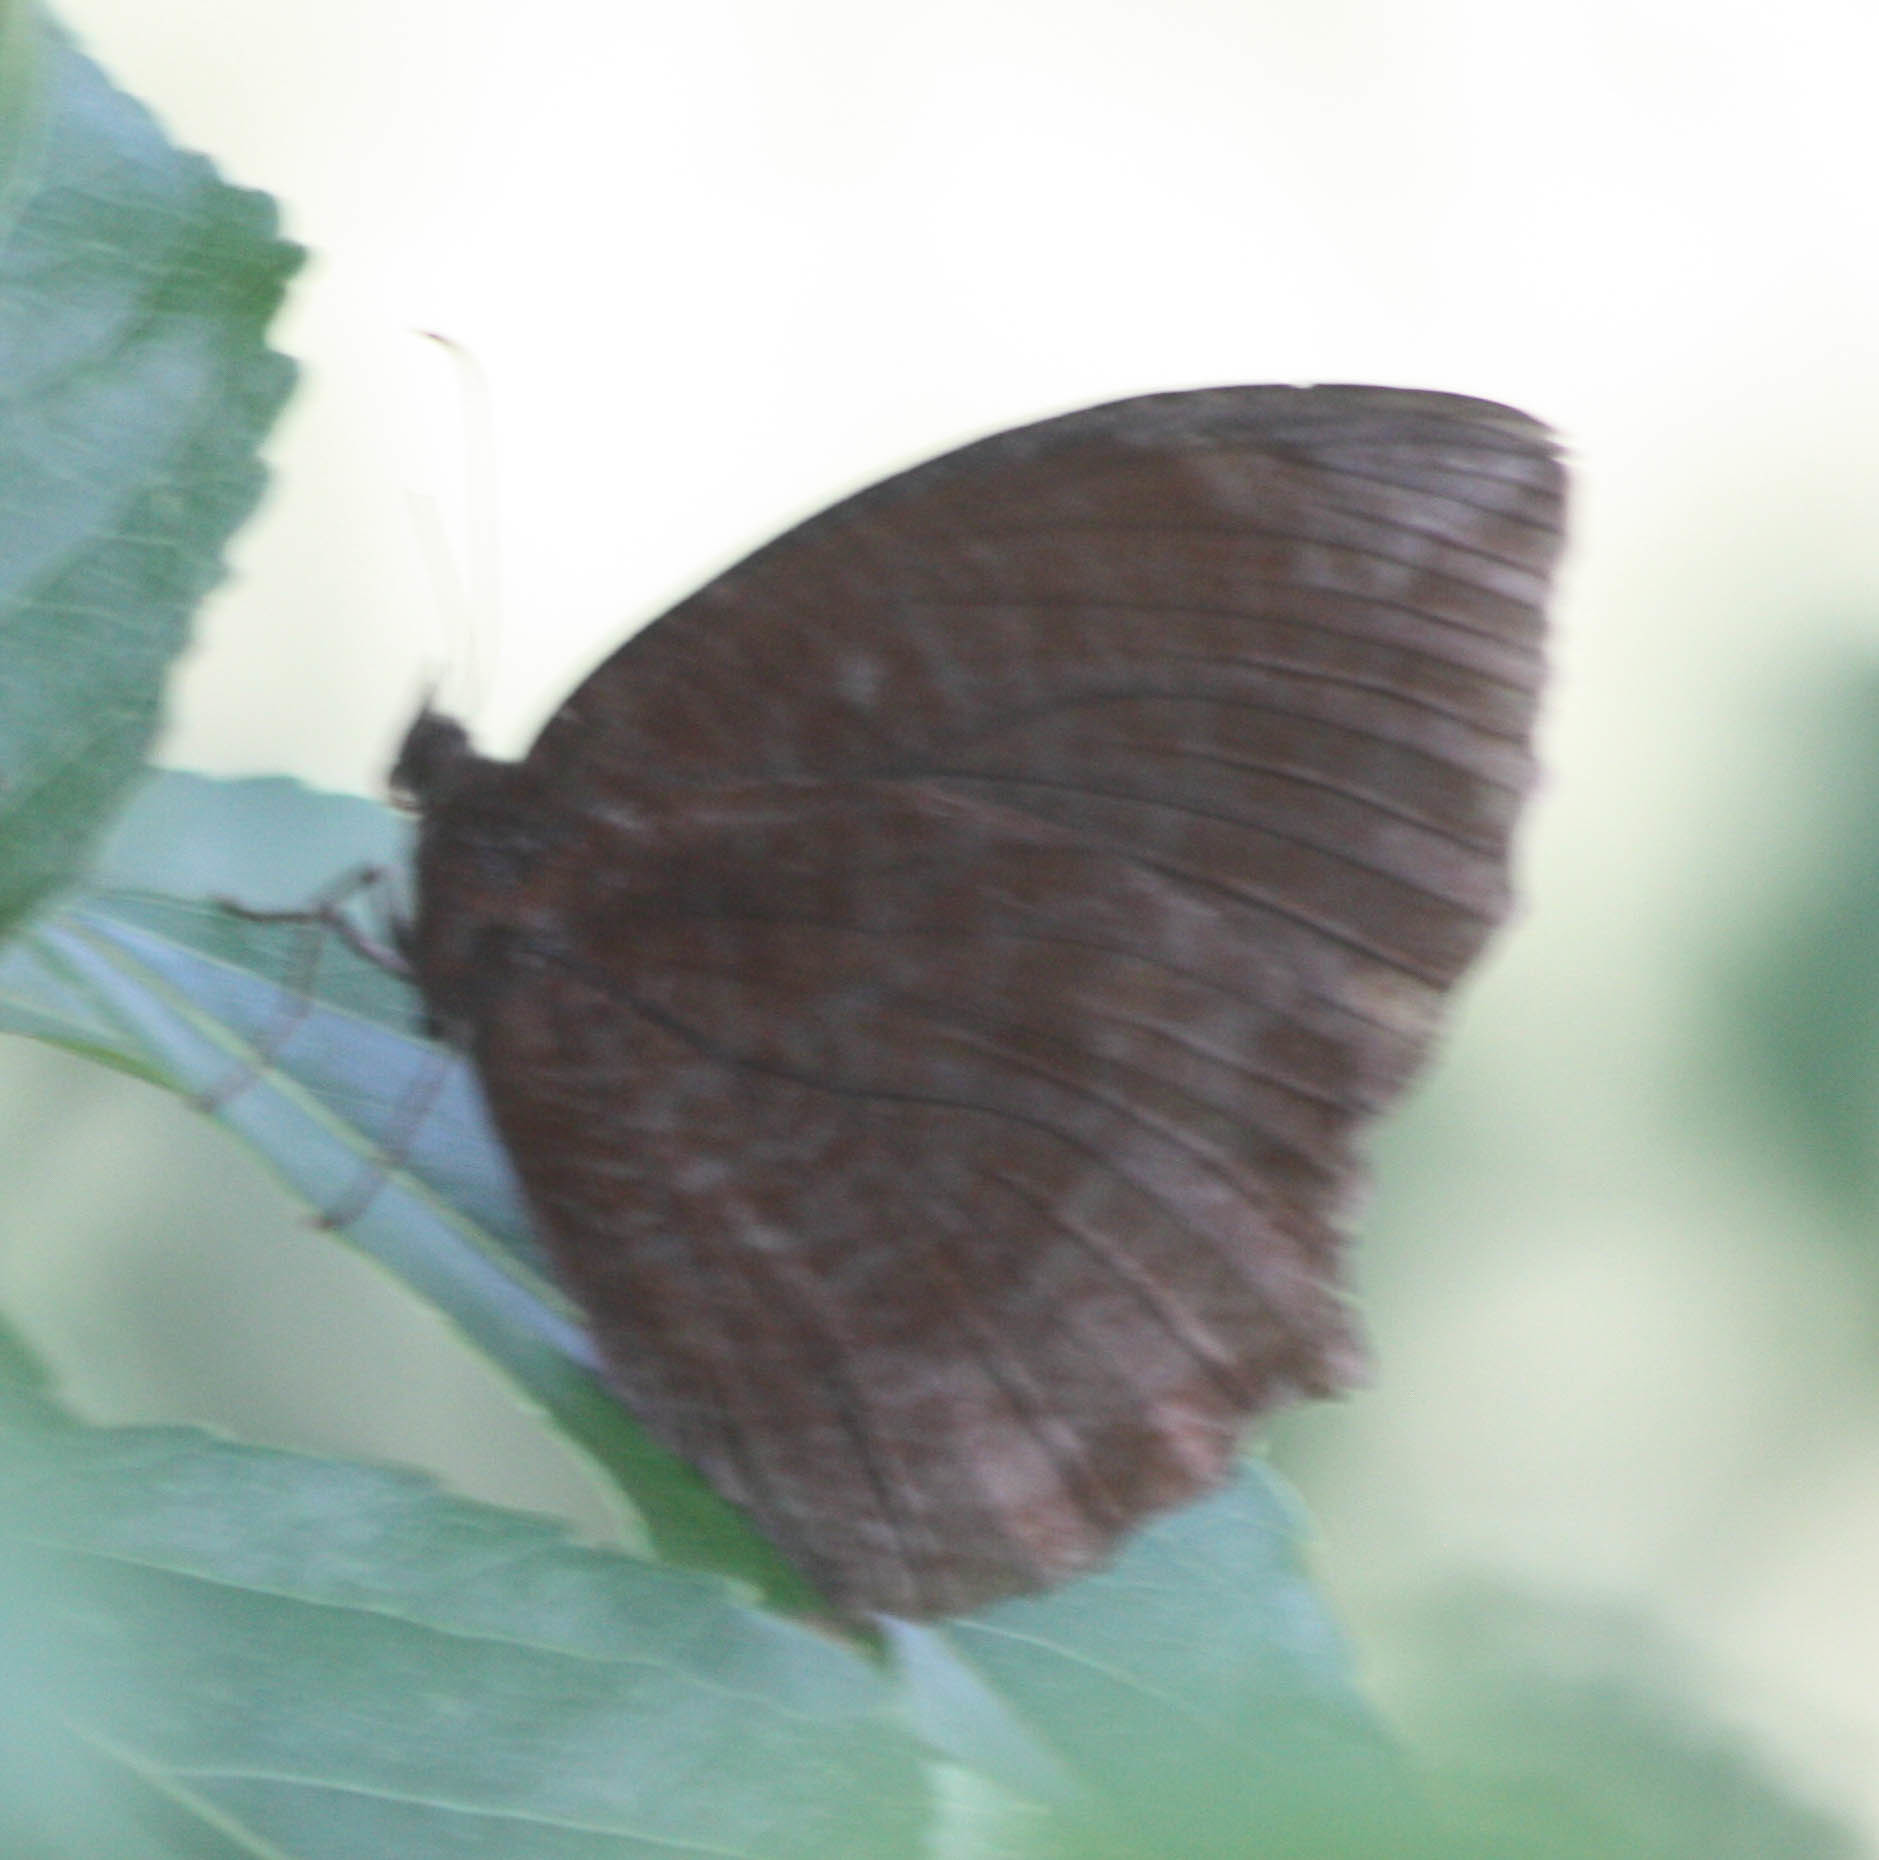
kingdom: Animalia
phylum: Arthropoda
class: Insecta
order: Lepidoptera
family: Nymphalidae
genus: Elymnias
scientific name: Elymnias hypermnestra
